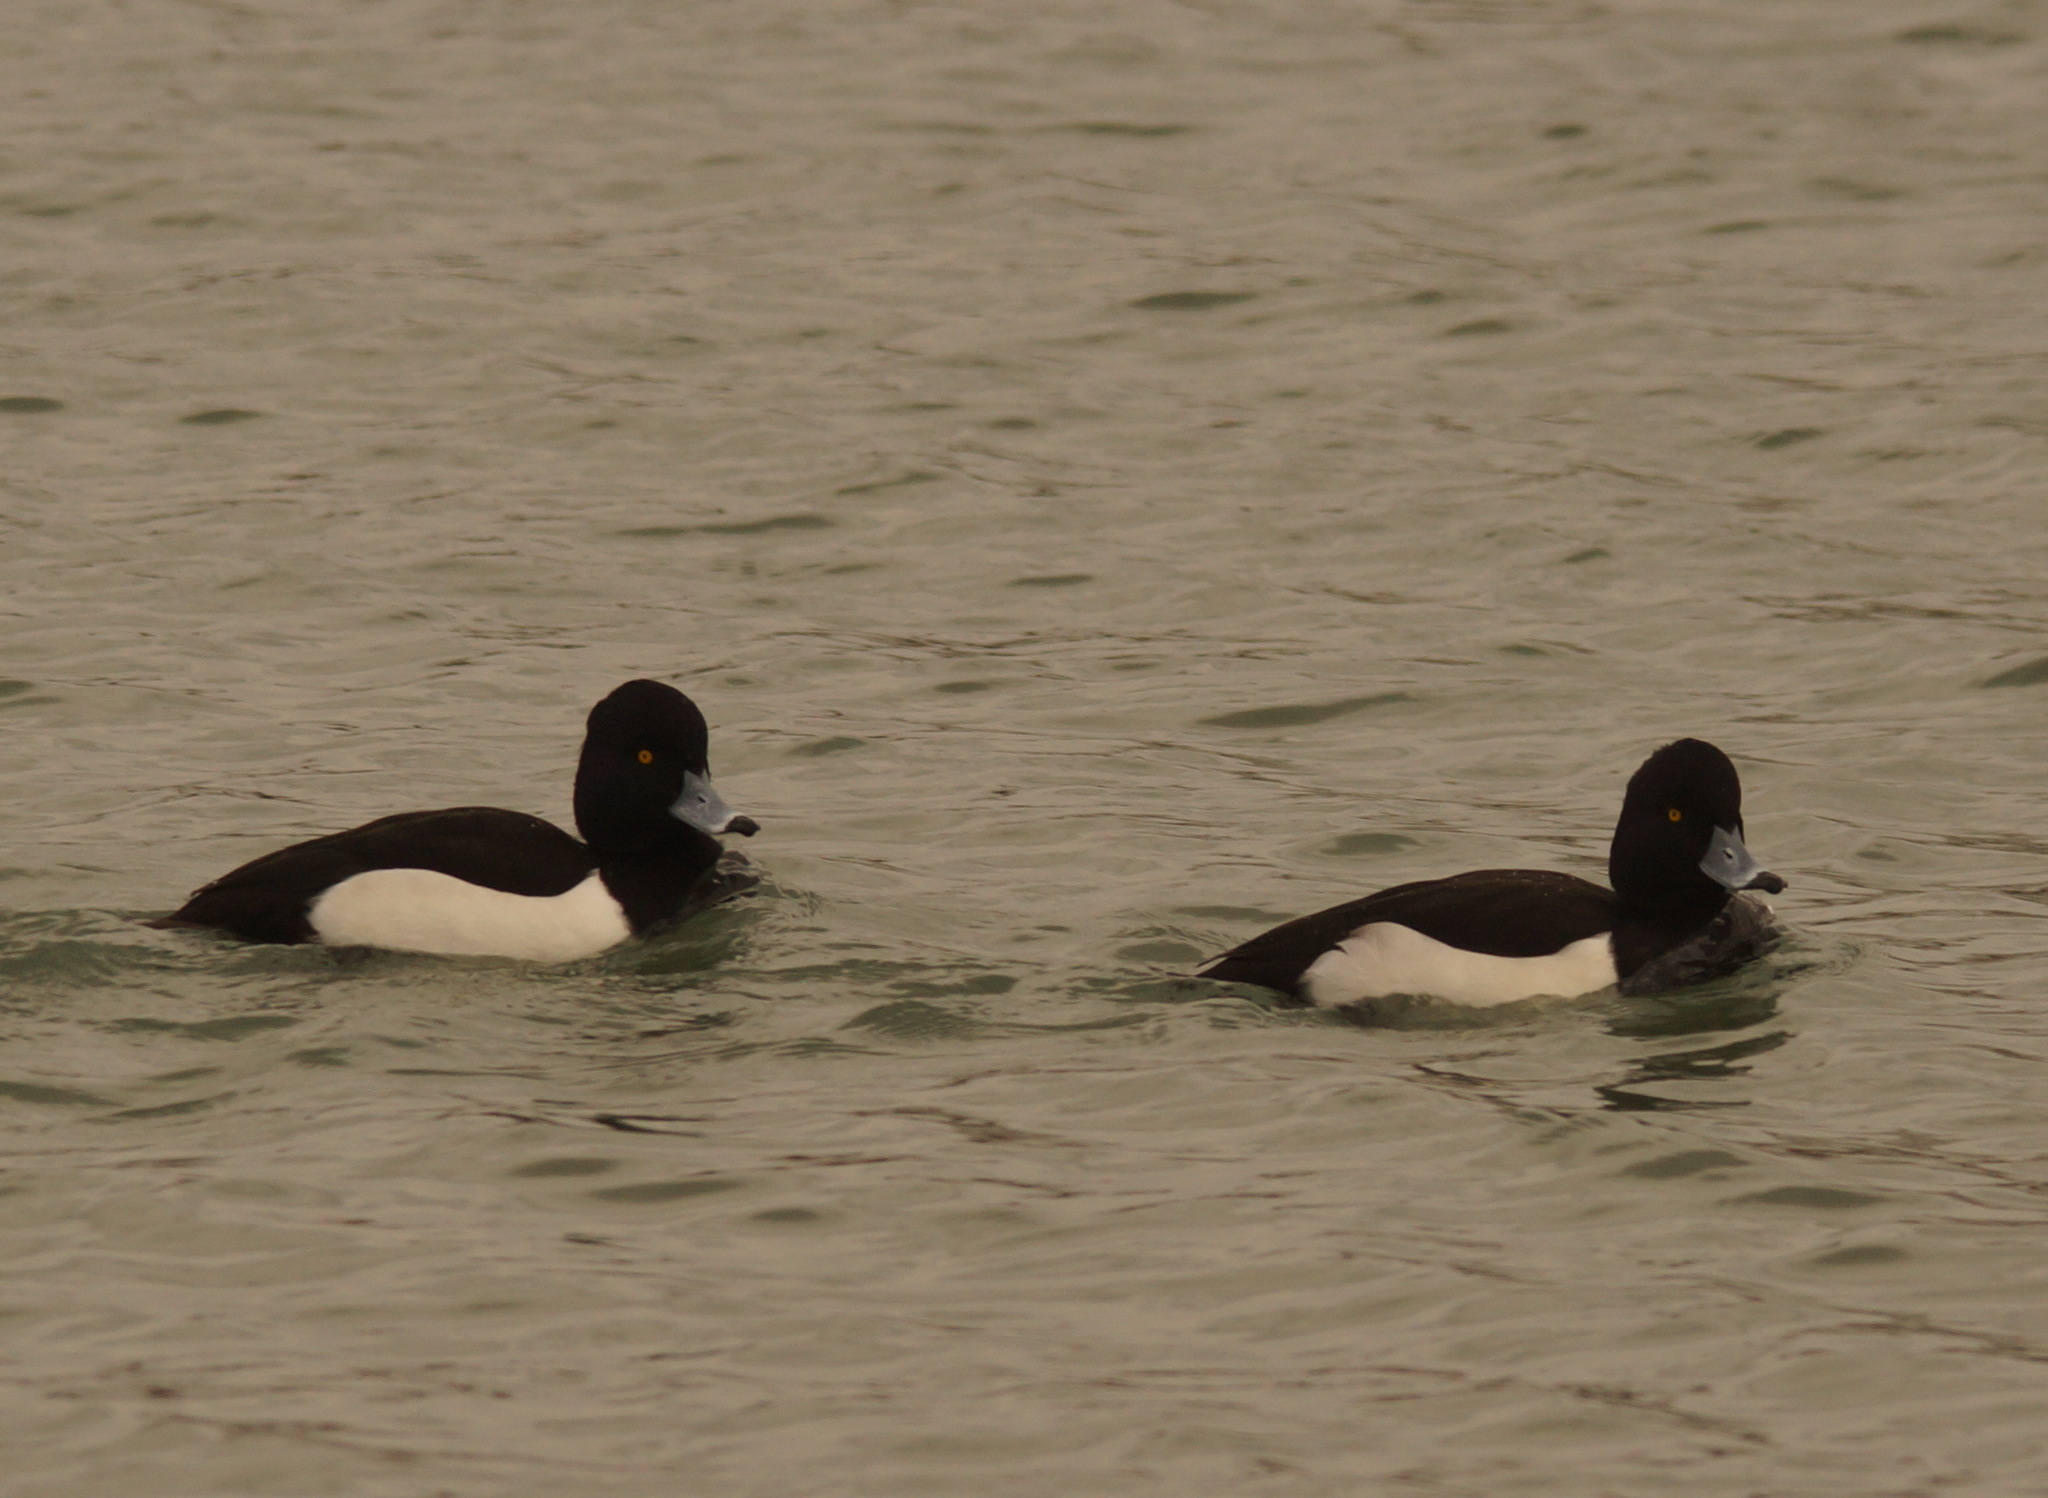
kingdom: Animalia
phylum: Chordata
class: Aves
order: Anseriformes
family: Anatidae
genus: Aythya
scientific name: Aythya fuligula
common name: Tufted duck
